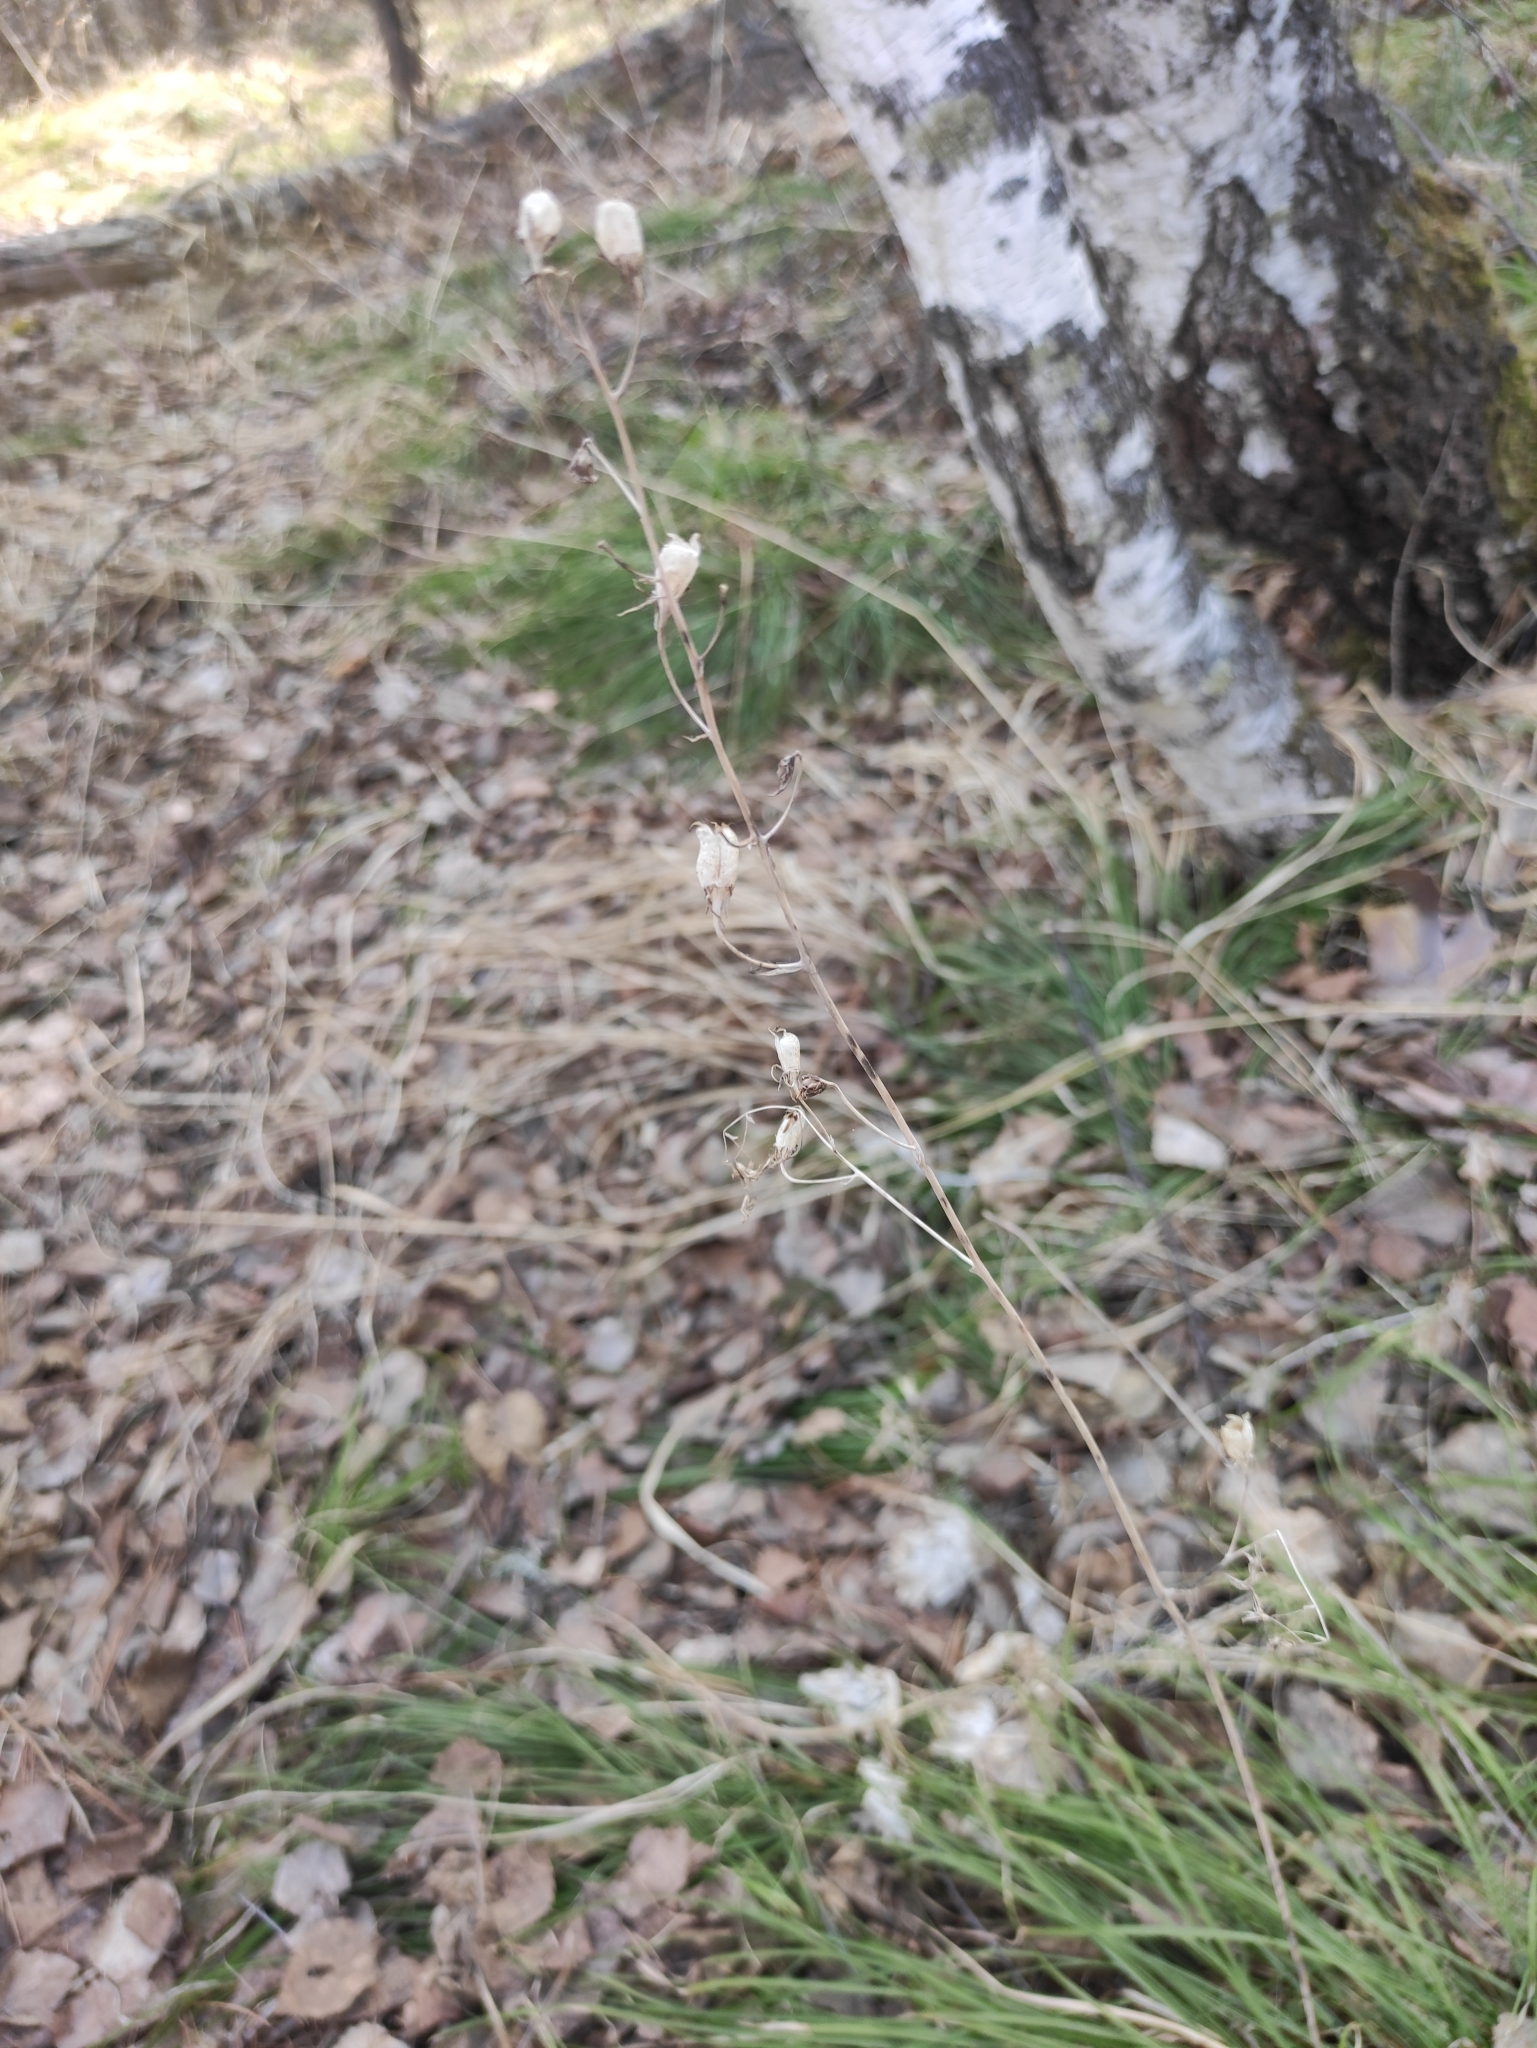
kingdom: Plantae
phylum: Tracheophyta
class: Liliopsida
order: Liliales
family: Melanthiaceae
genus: Anticlea
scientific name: Anticlea sibirica
